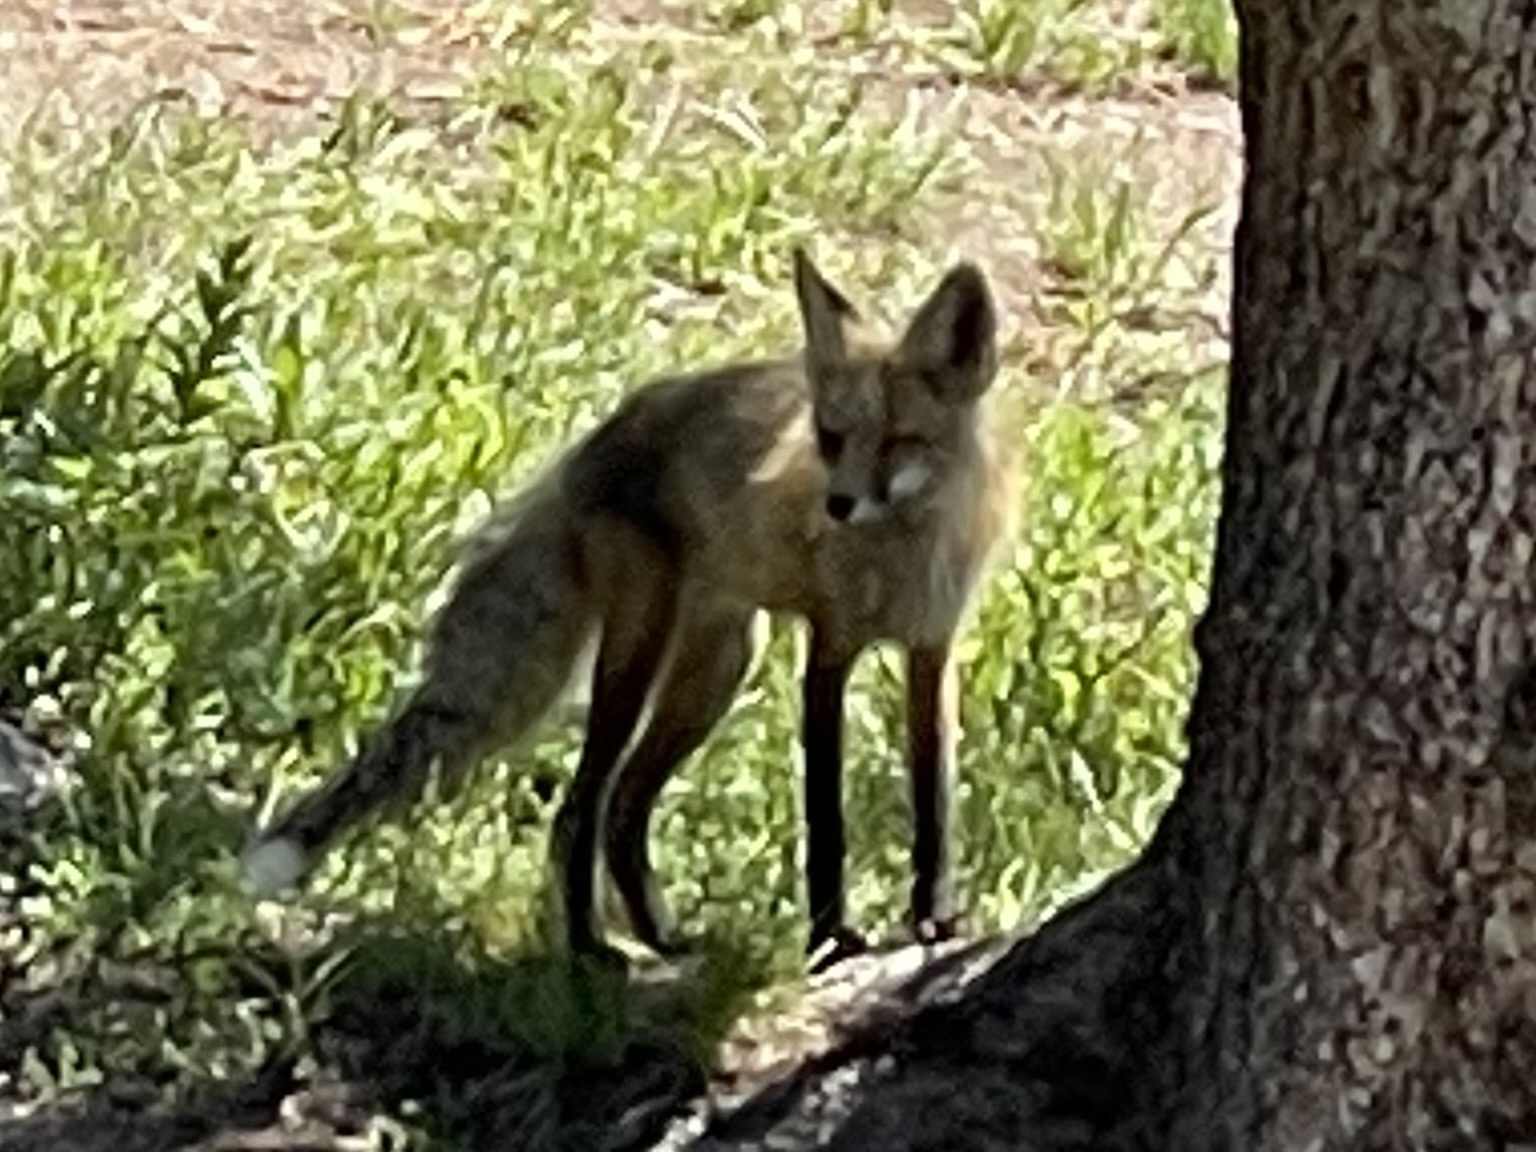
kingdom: Animalia
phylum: Chordata
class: Mammalia
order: Carnivora
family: Canidae
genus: Vulpes
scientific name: Vulpes vulpes
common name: Red fox
